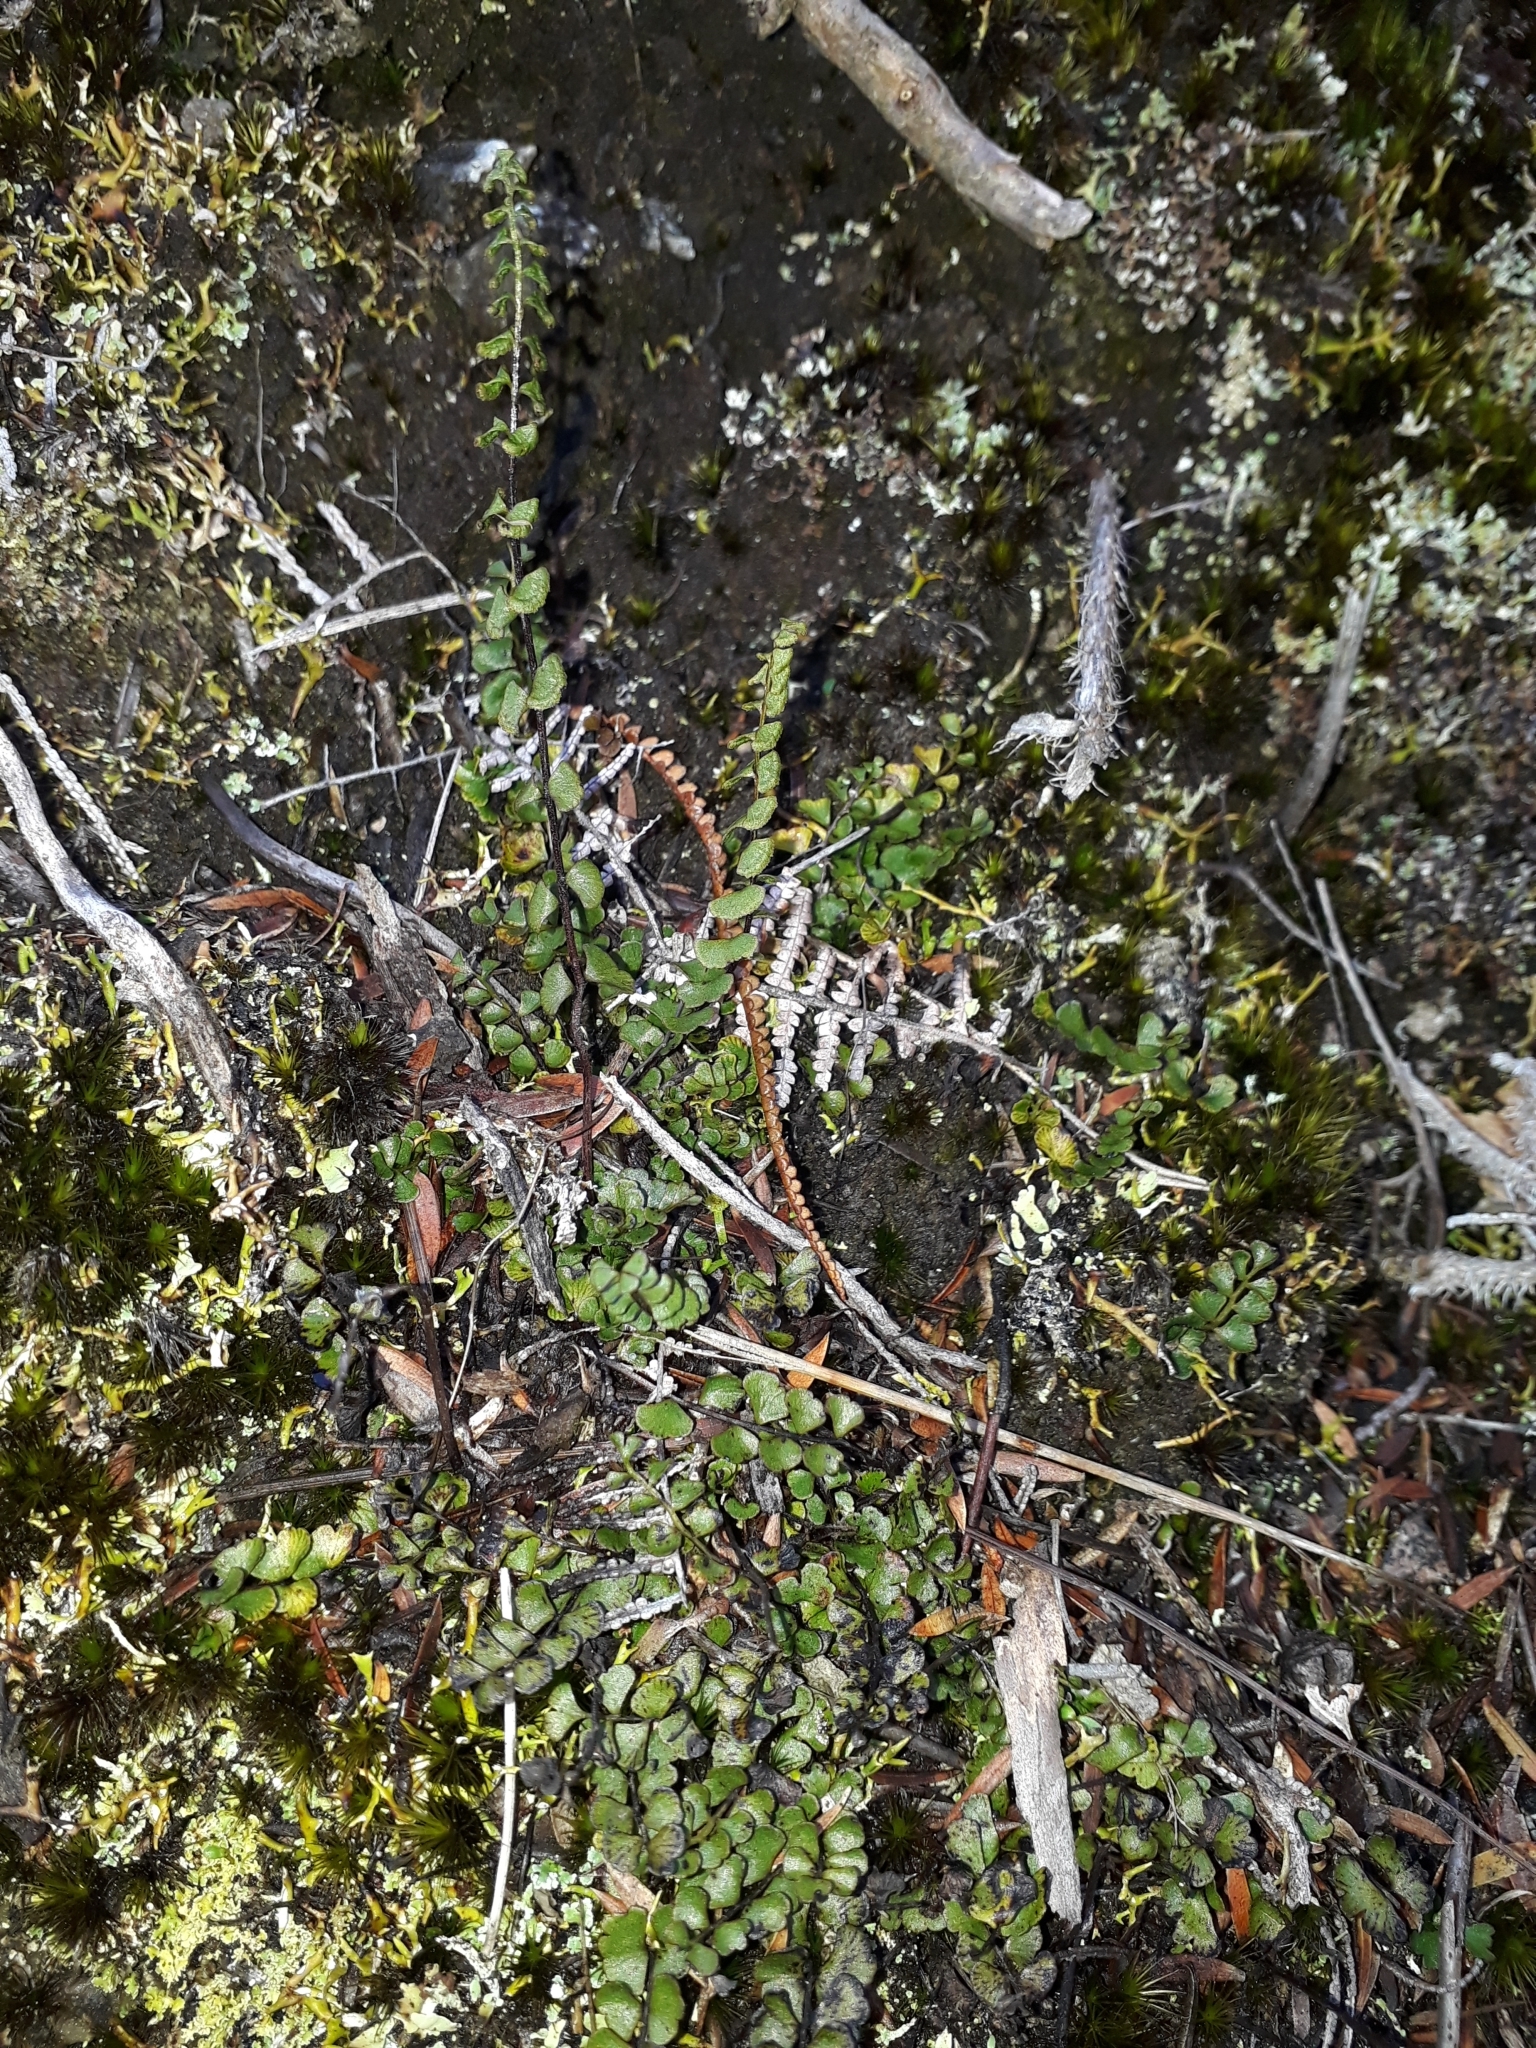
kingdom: Plantae
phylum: Tracheophyta
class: Polypodiopsida
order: Polypodiales
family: Lindsaeaceae
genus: Lindsaea
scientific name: Lindsaea linearis
